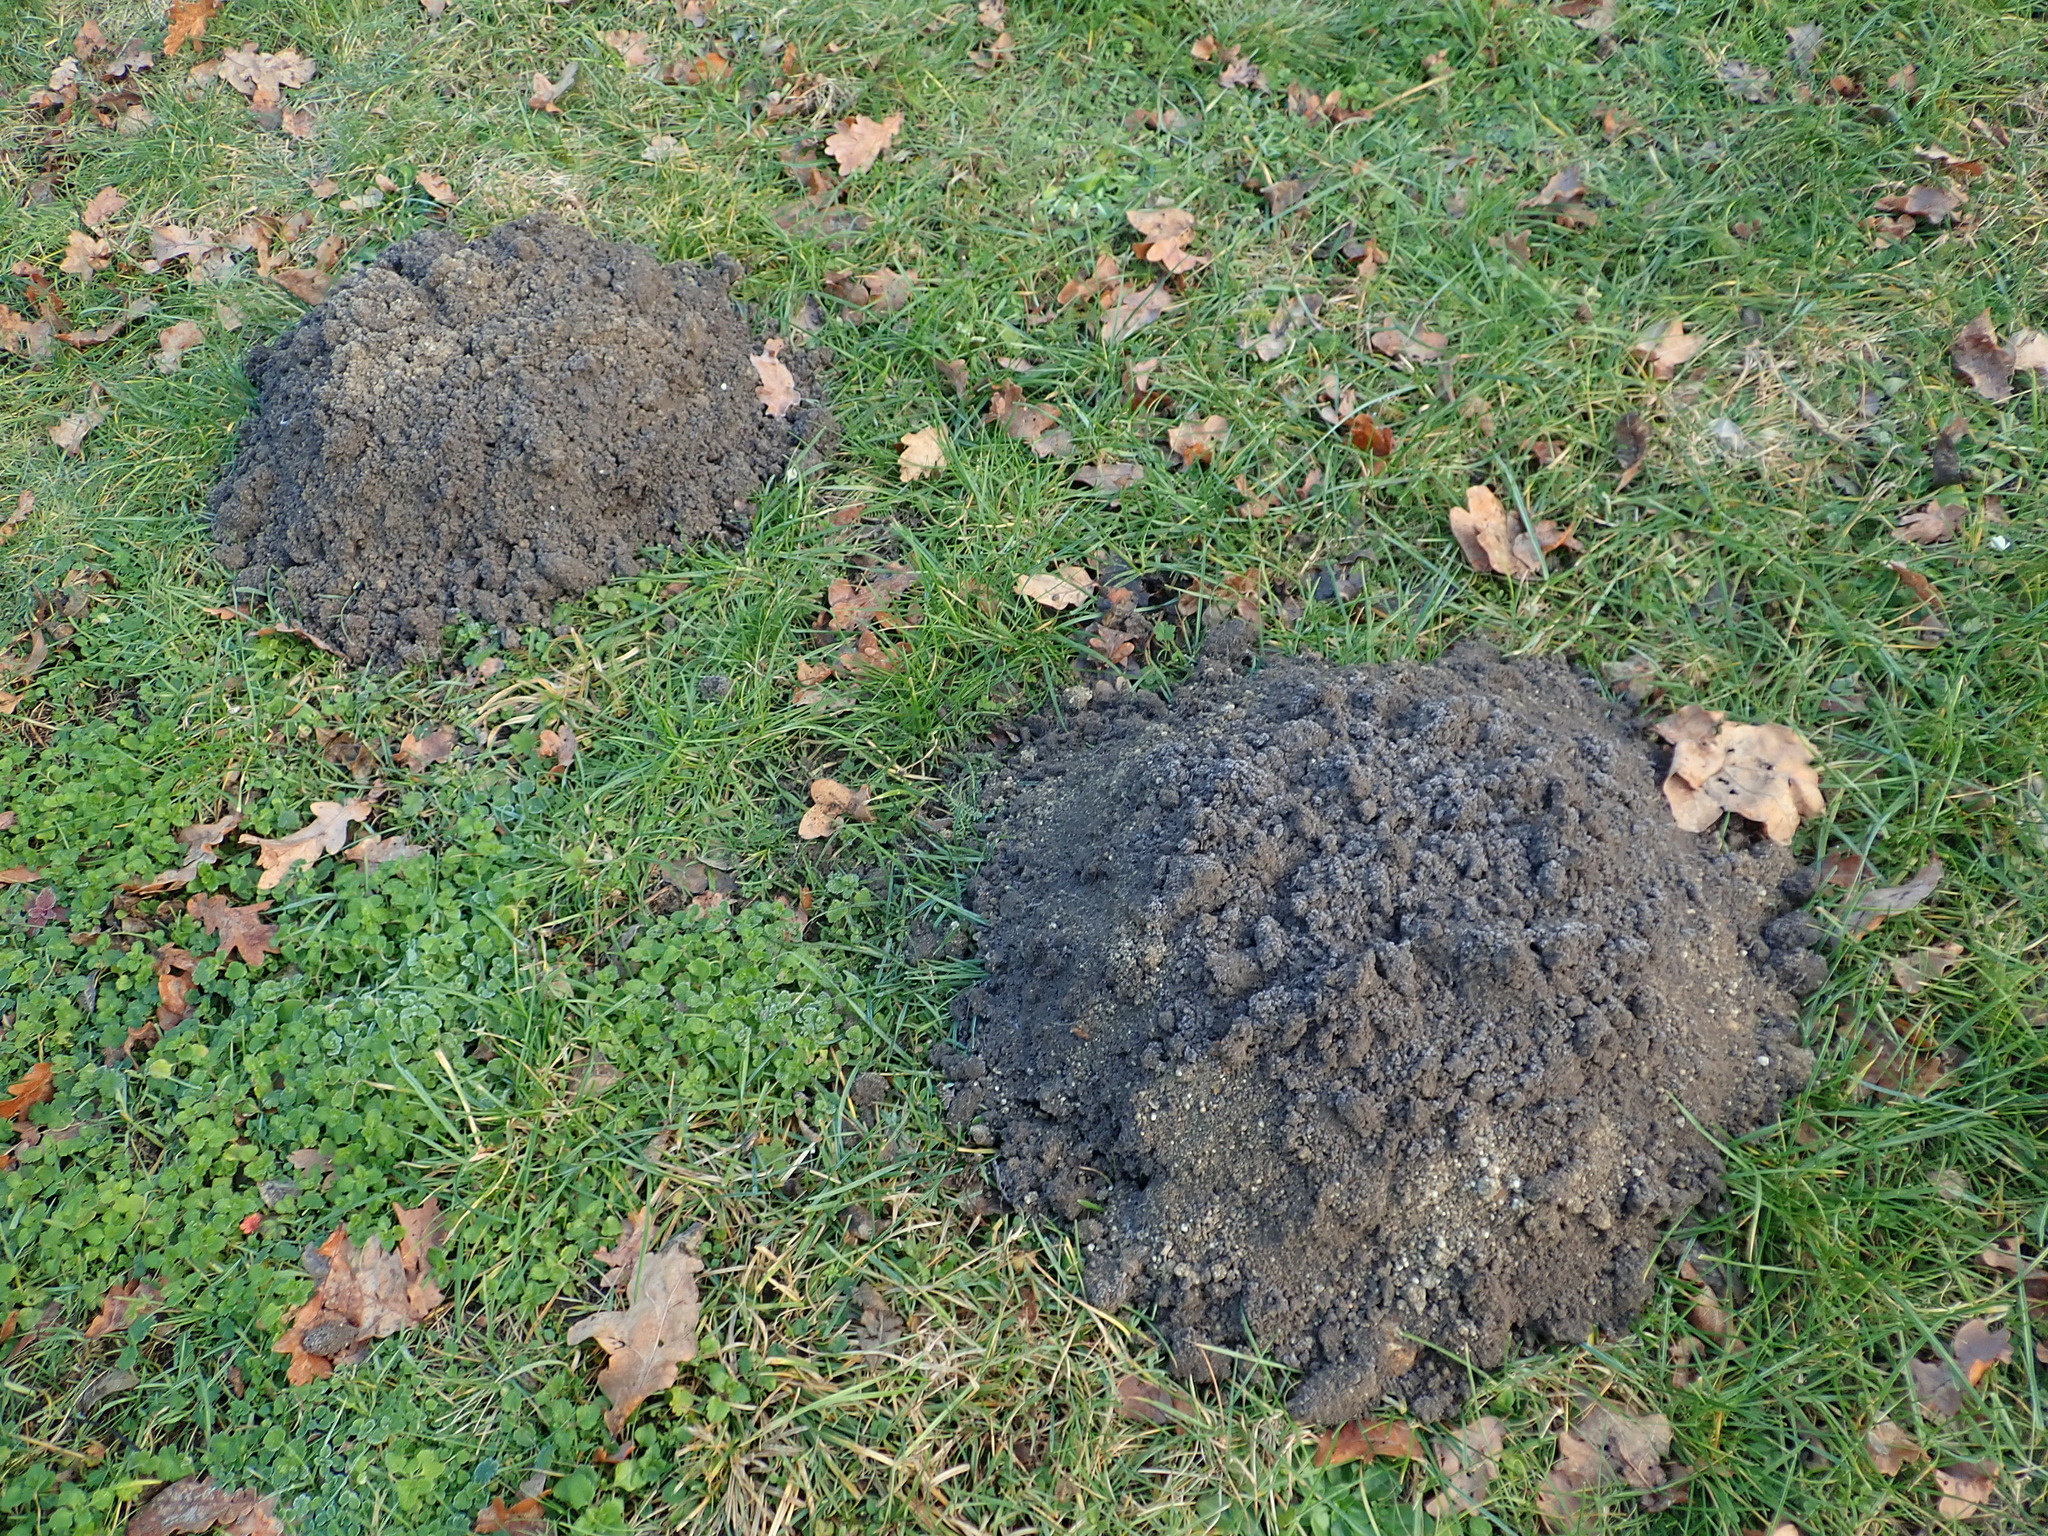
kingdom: Animalia
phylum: Chordata
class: Mammalia
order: Soricomorpha
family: Talpidae
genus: Talpa
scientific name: Talpa europaea
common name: European mole
